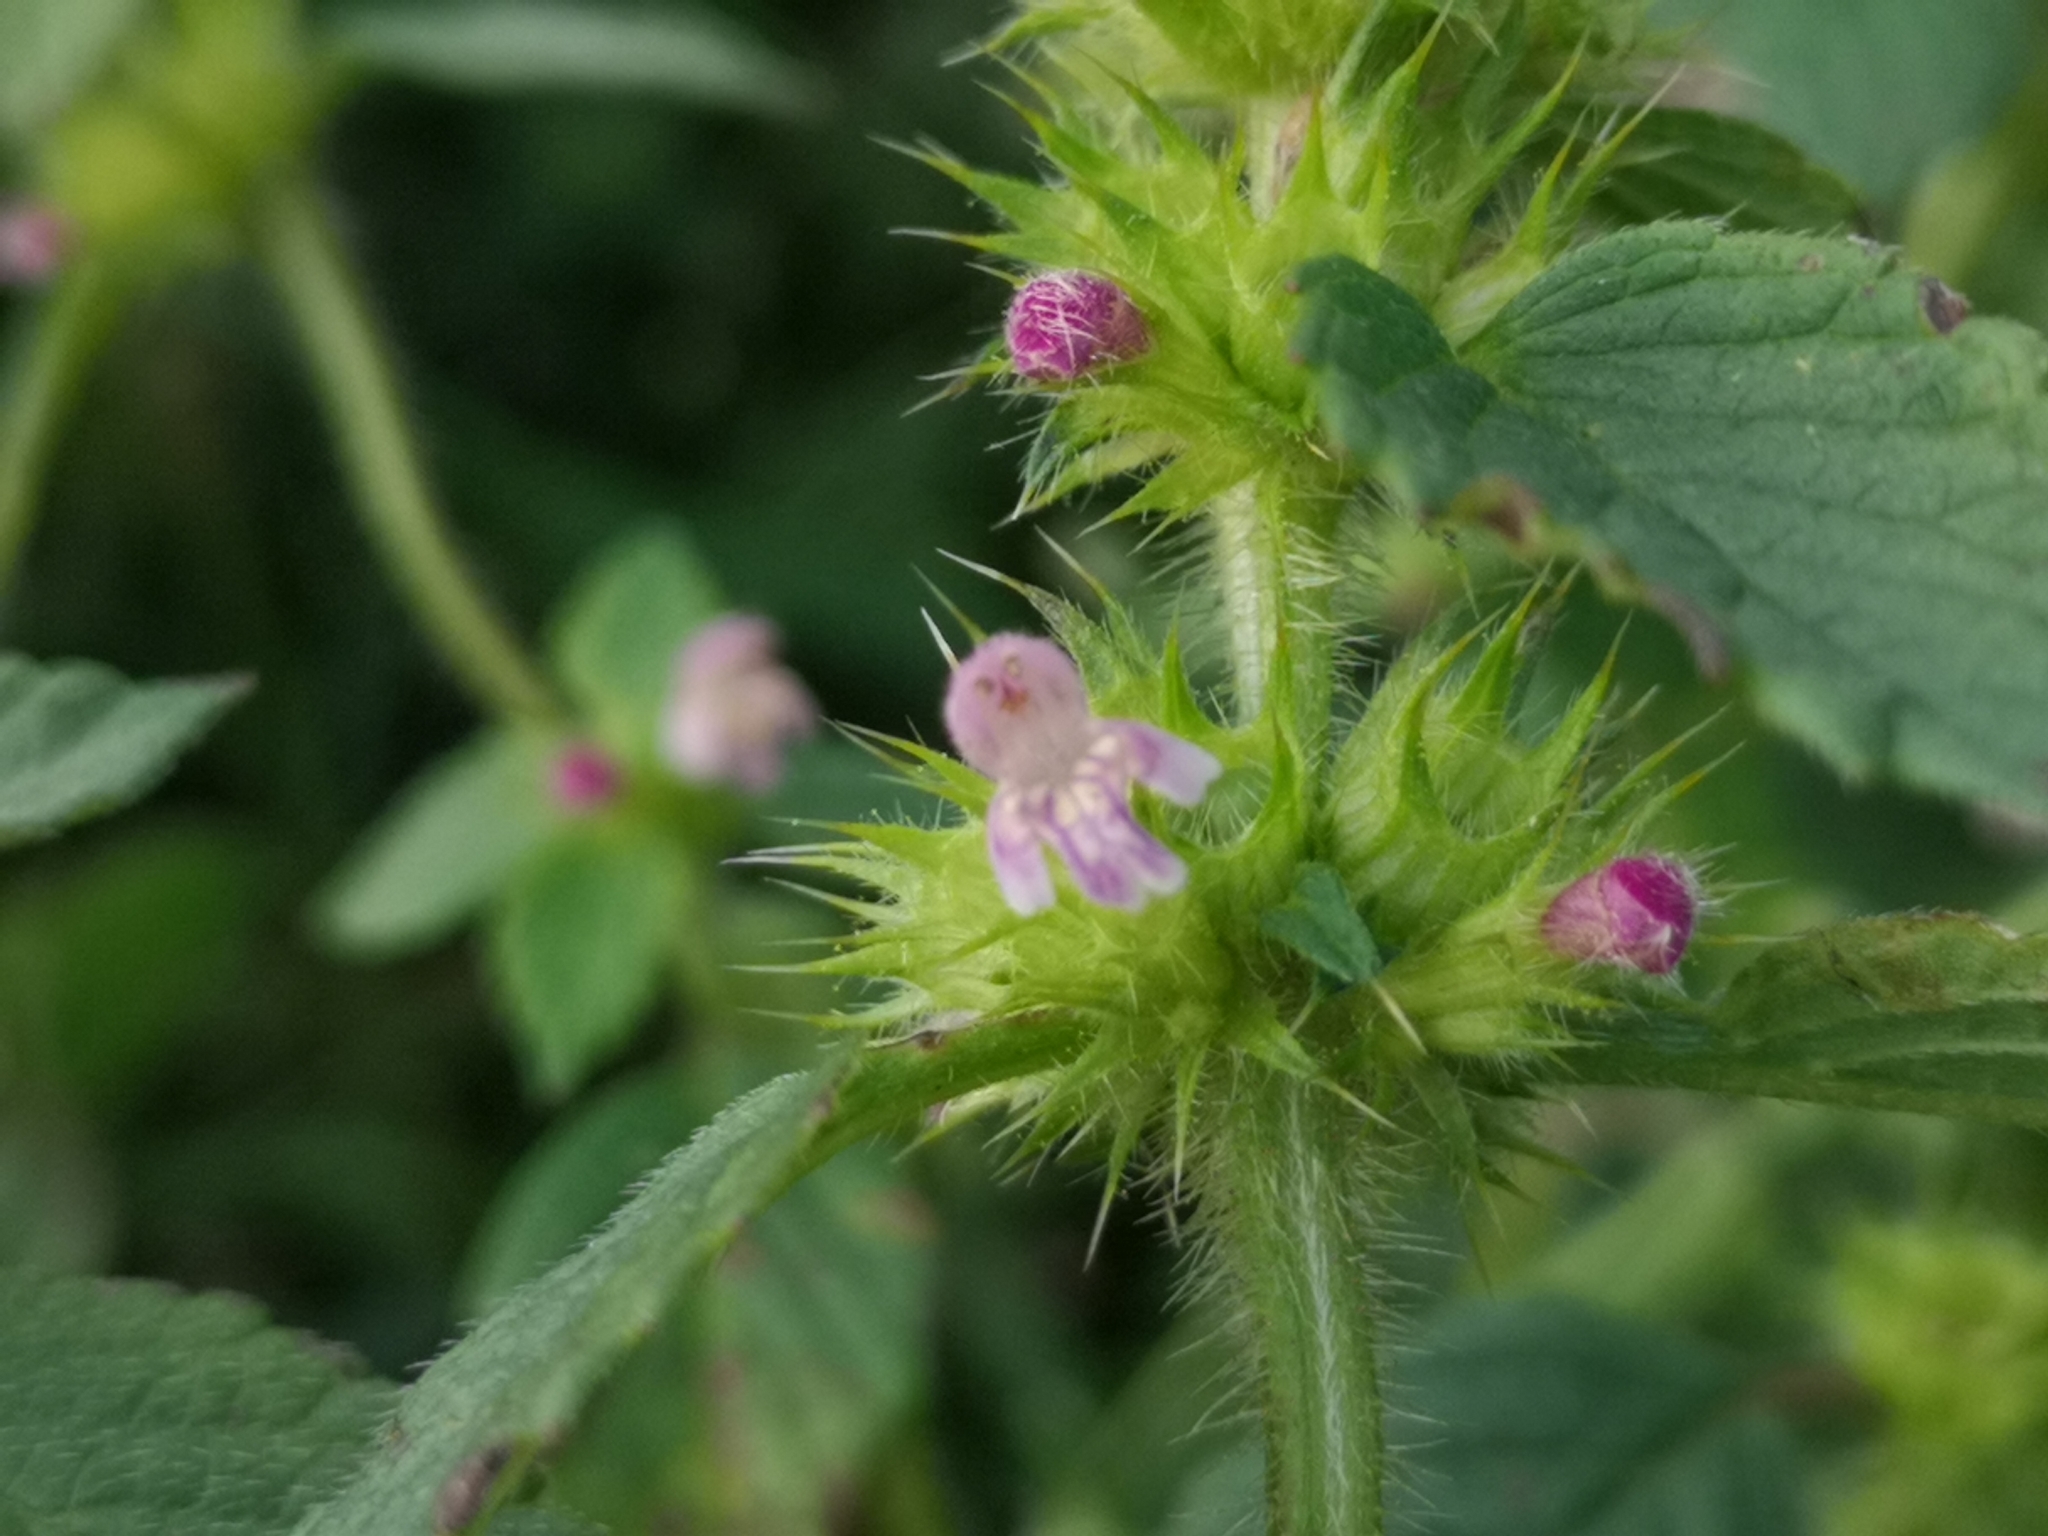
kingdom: Plantae
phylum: Tracheophyta
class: Magnoliopsida
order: Lamiales
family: Lamiaceae
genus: Galeopsis
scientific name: Galeopsis bifida
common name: Bifid hemp-nettle
